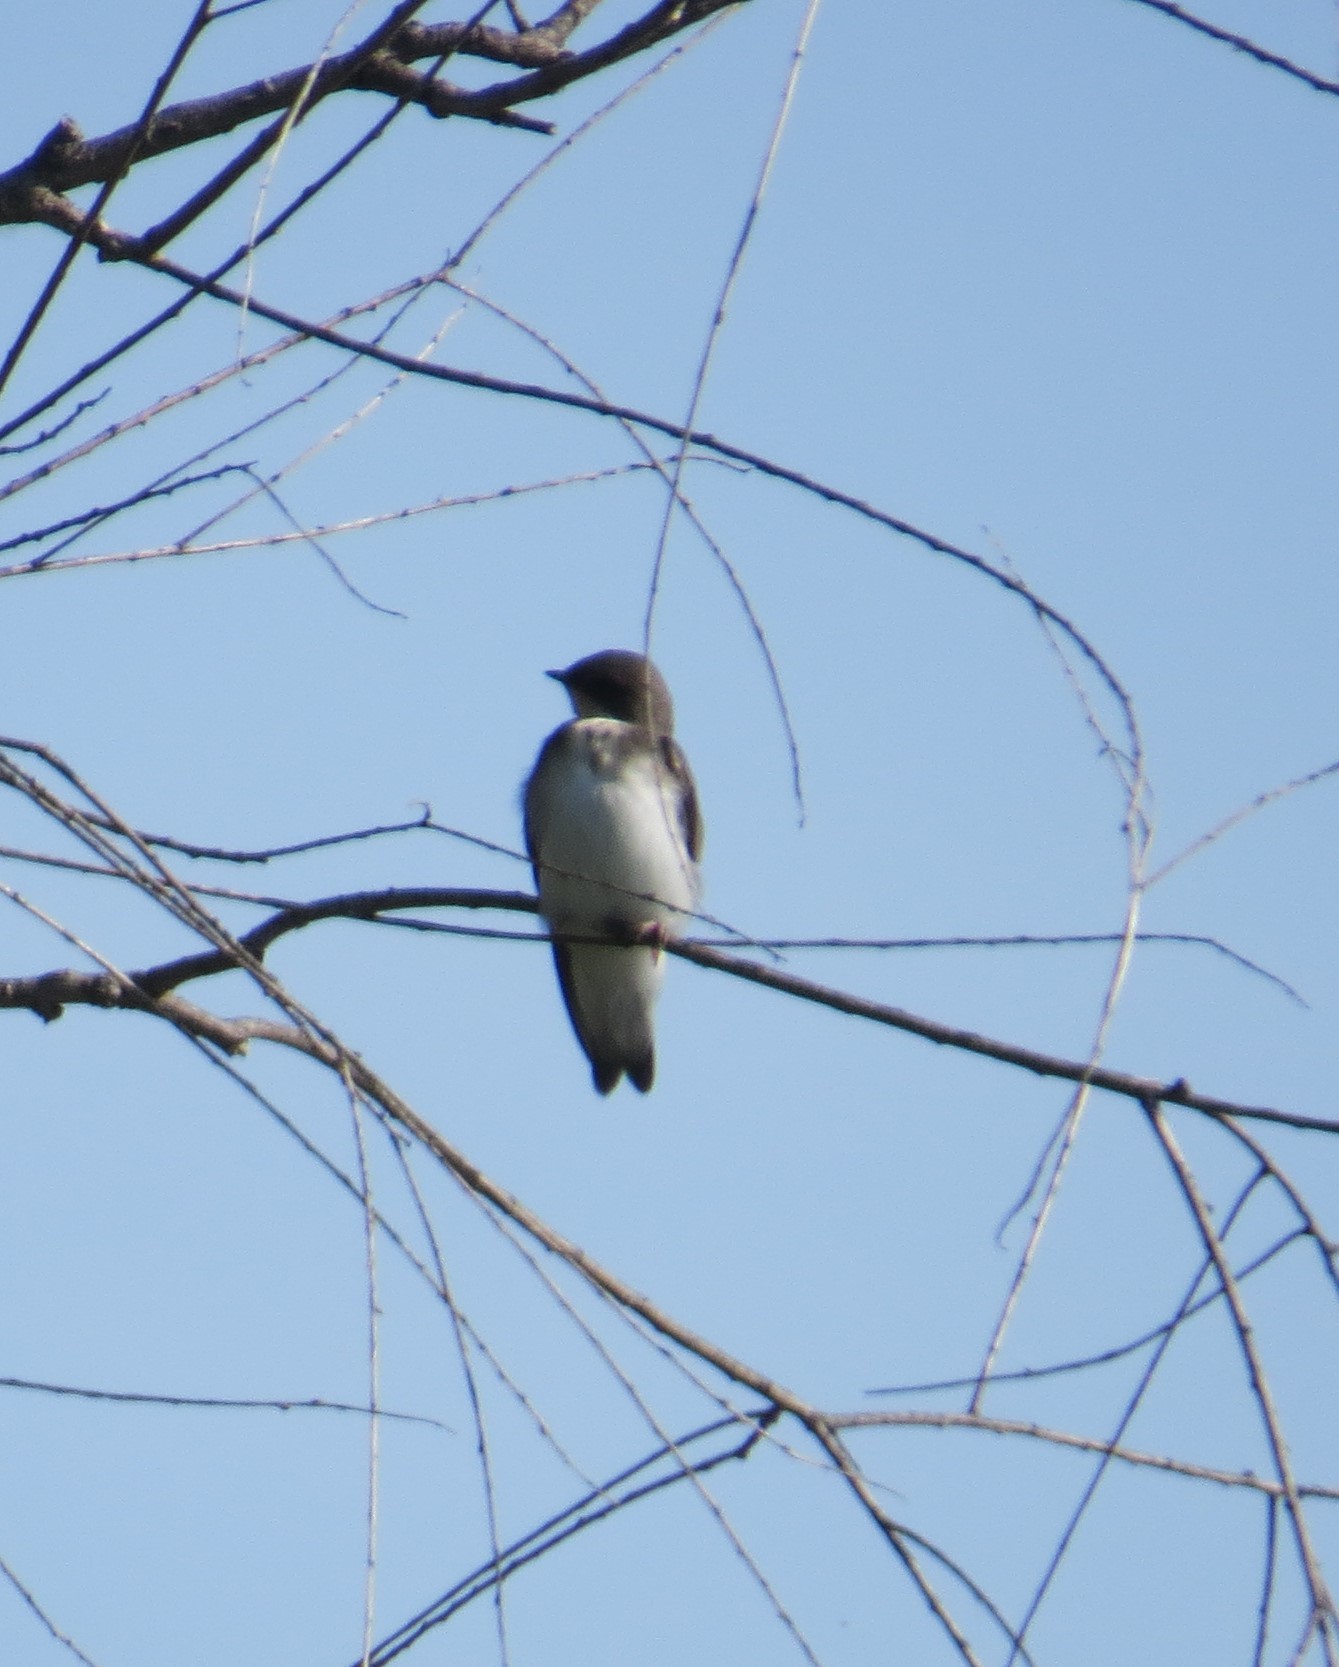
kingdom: Animalia
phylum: Chordata
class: Aves
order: Passeriformes
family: Hirundinidae
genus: Tachycineta
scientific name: Tachycineta bicolor
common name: Tree swallow
